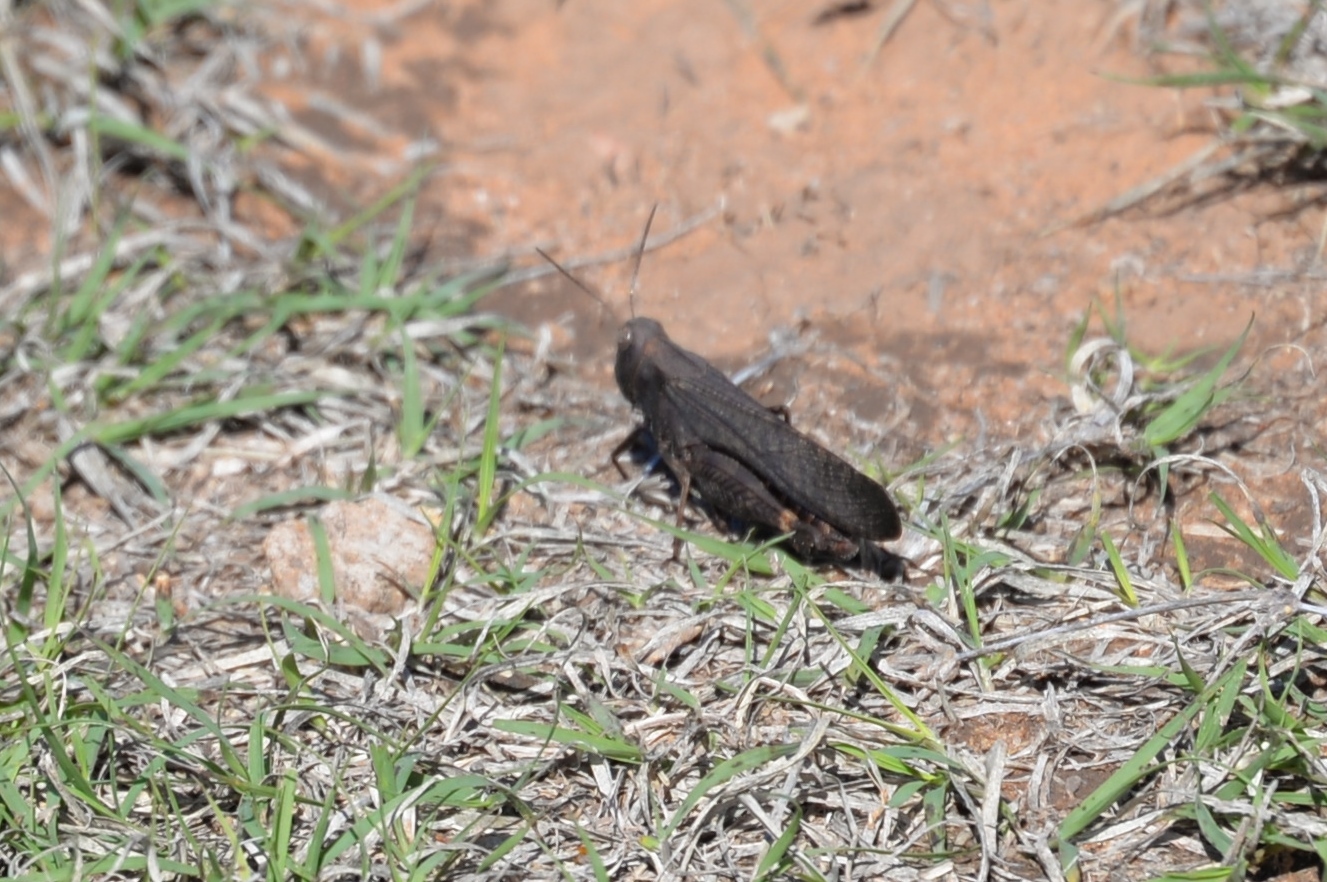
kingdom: Animalia
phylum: Arthropoda
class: Insecta
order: Orthoptera
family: Acrididae
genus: Arphia
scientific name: Arphia pseudo-nietana
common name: Red-winged grasshopper
